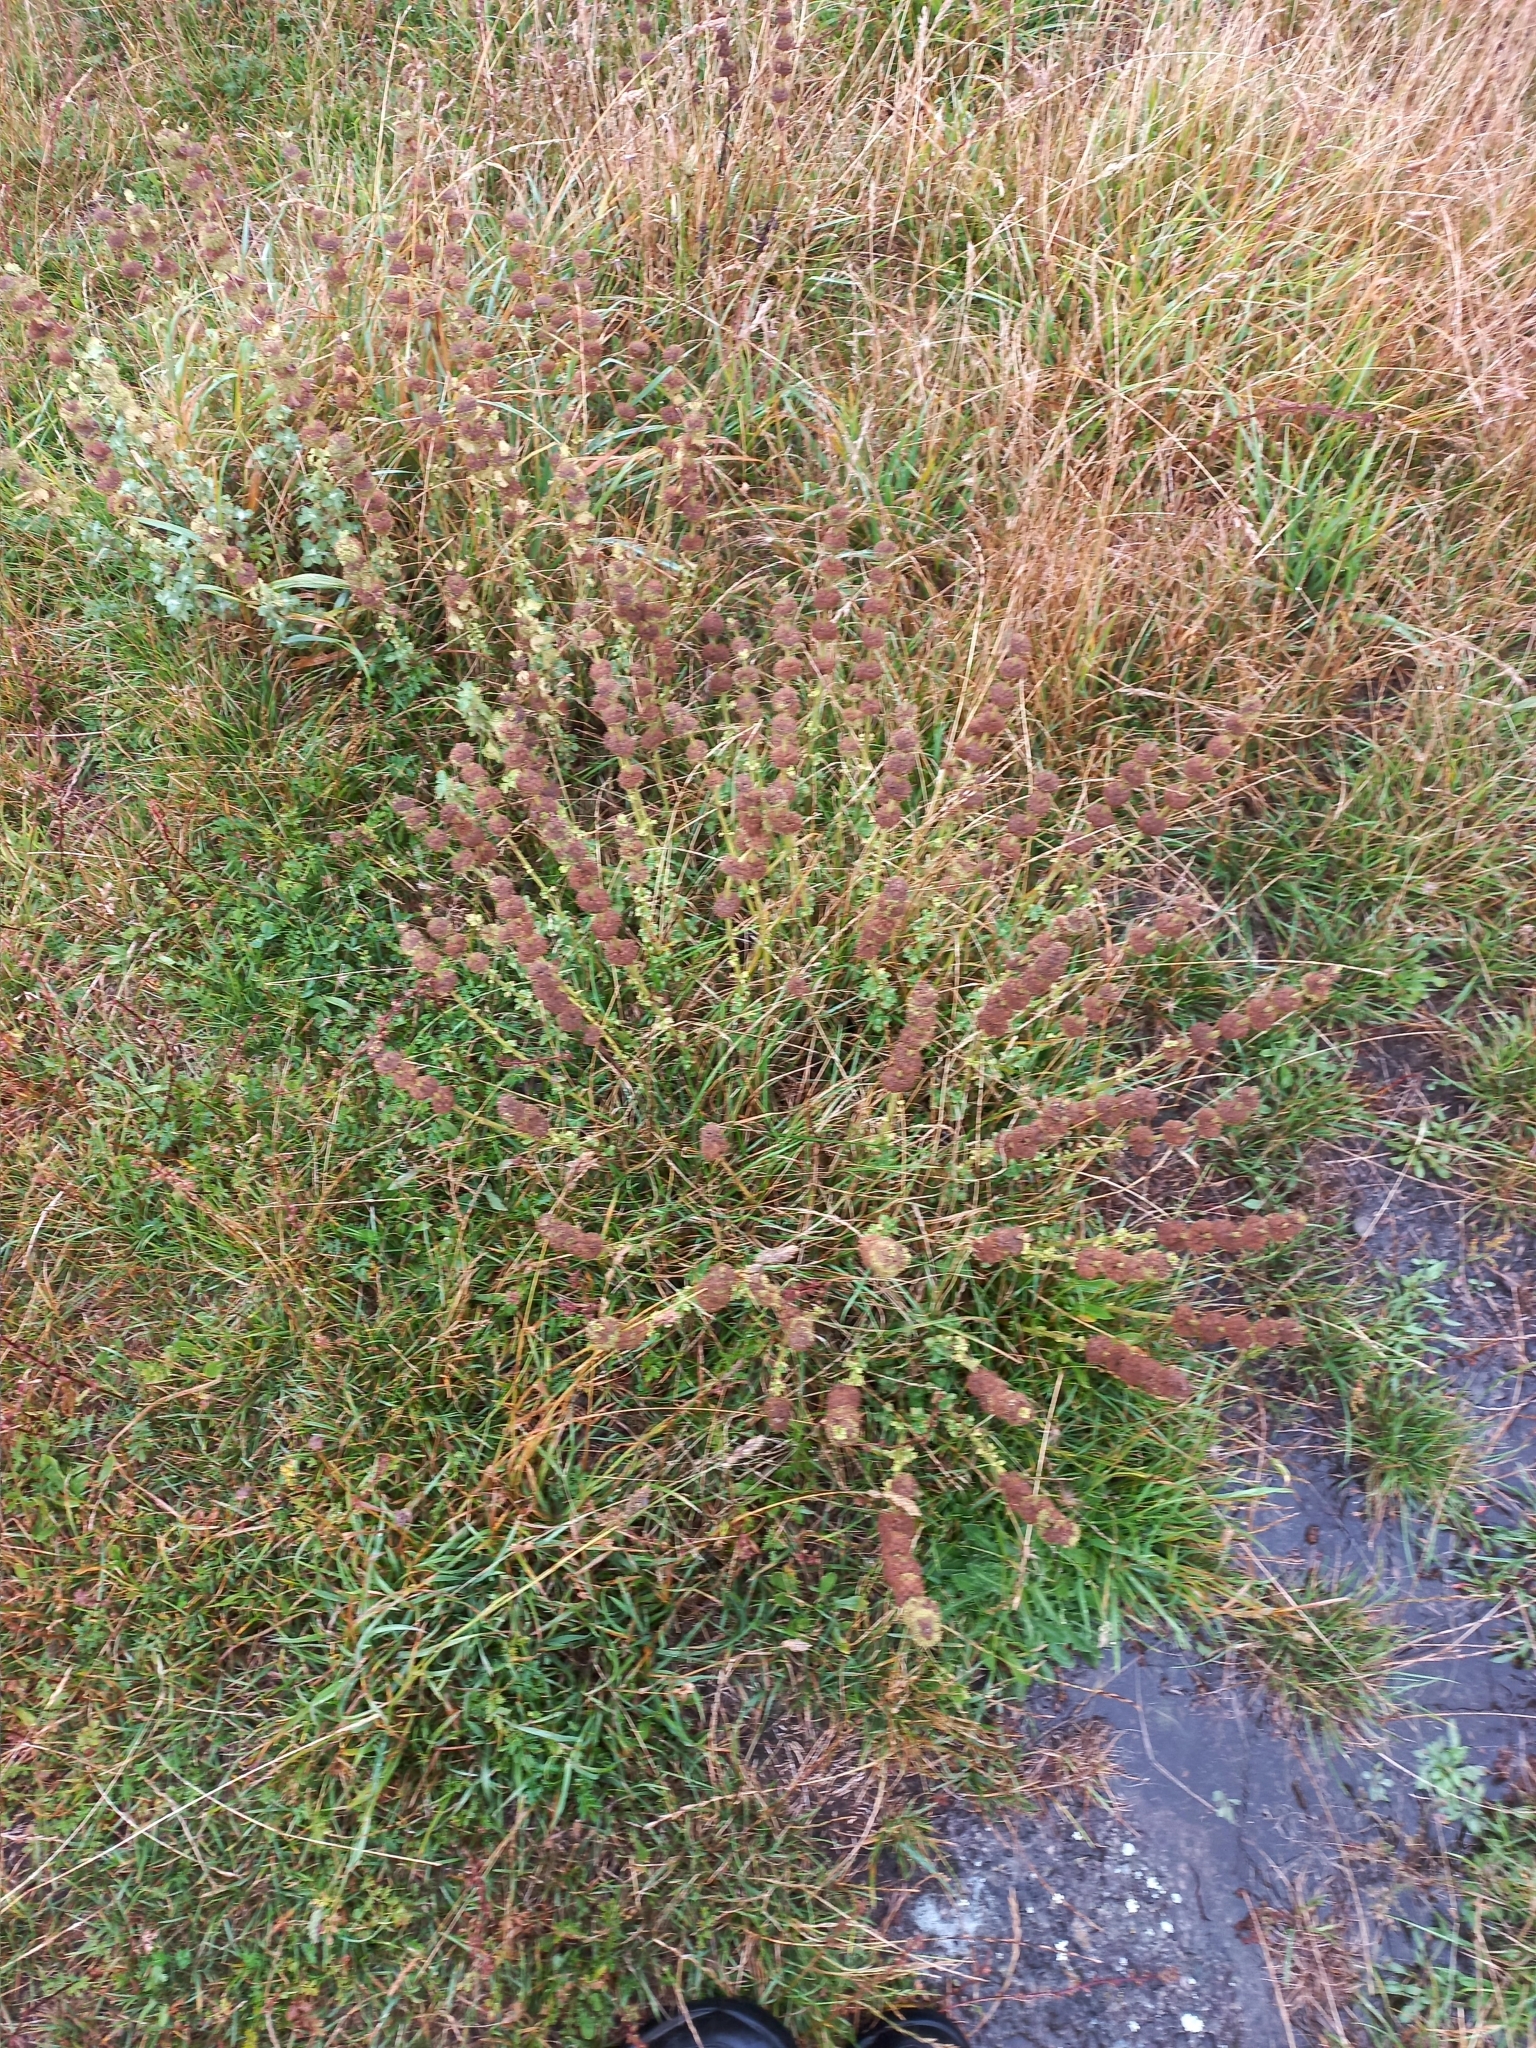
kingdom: Plantae
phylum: Tracheophyta
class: Magnoliopsida
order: Lamiales
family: Lamiaceae
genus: Marrubium
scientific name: Marrubium vulgare
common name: Horehound
